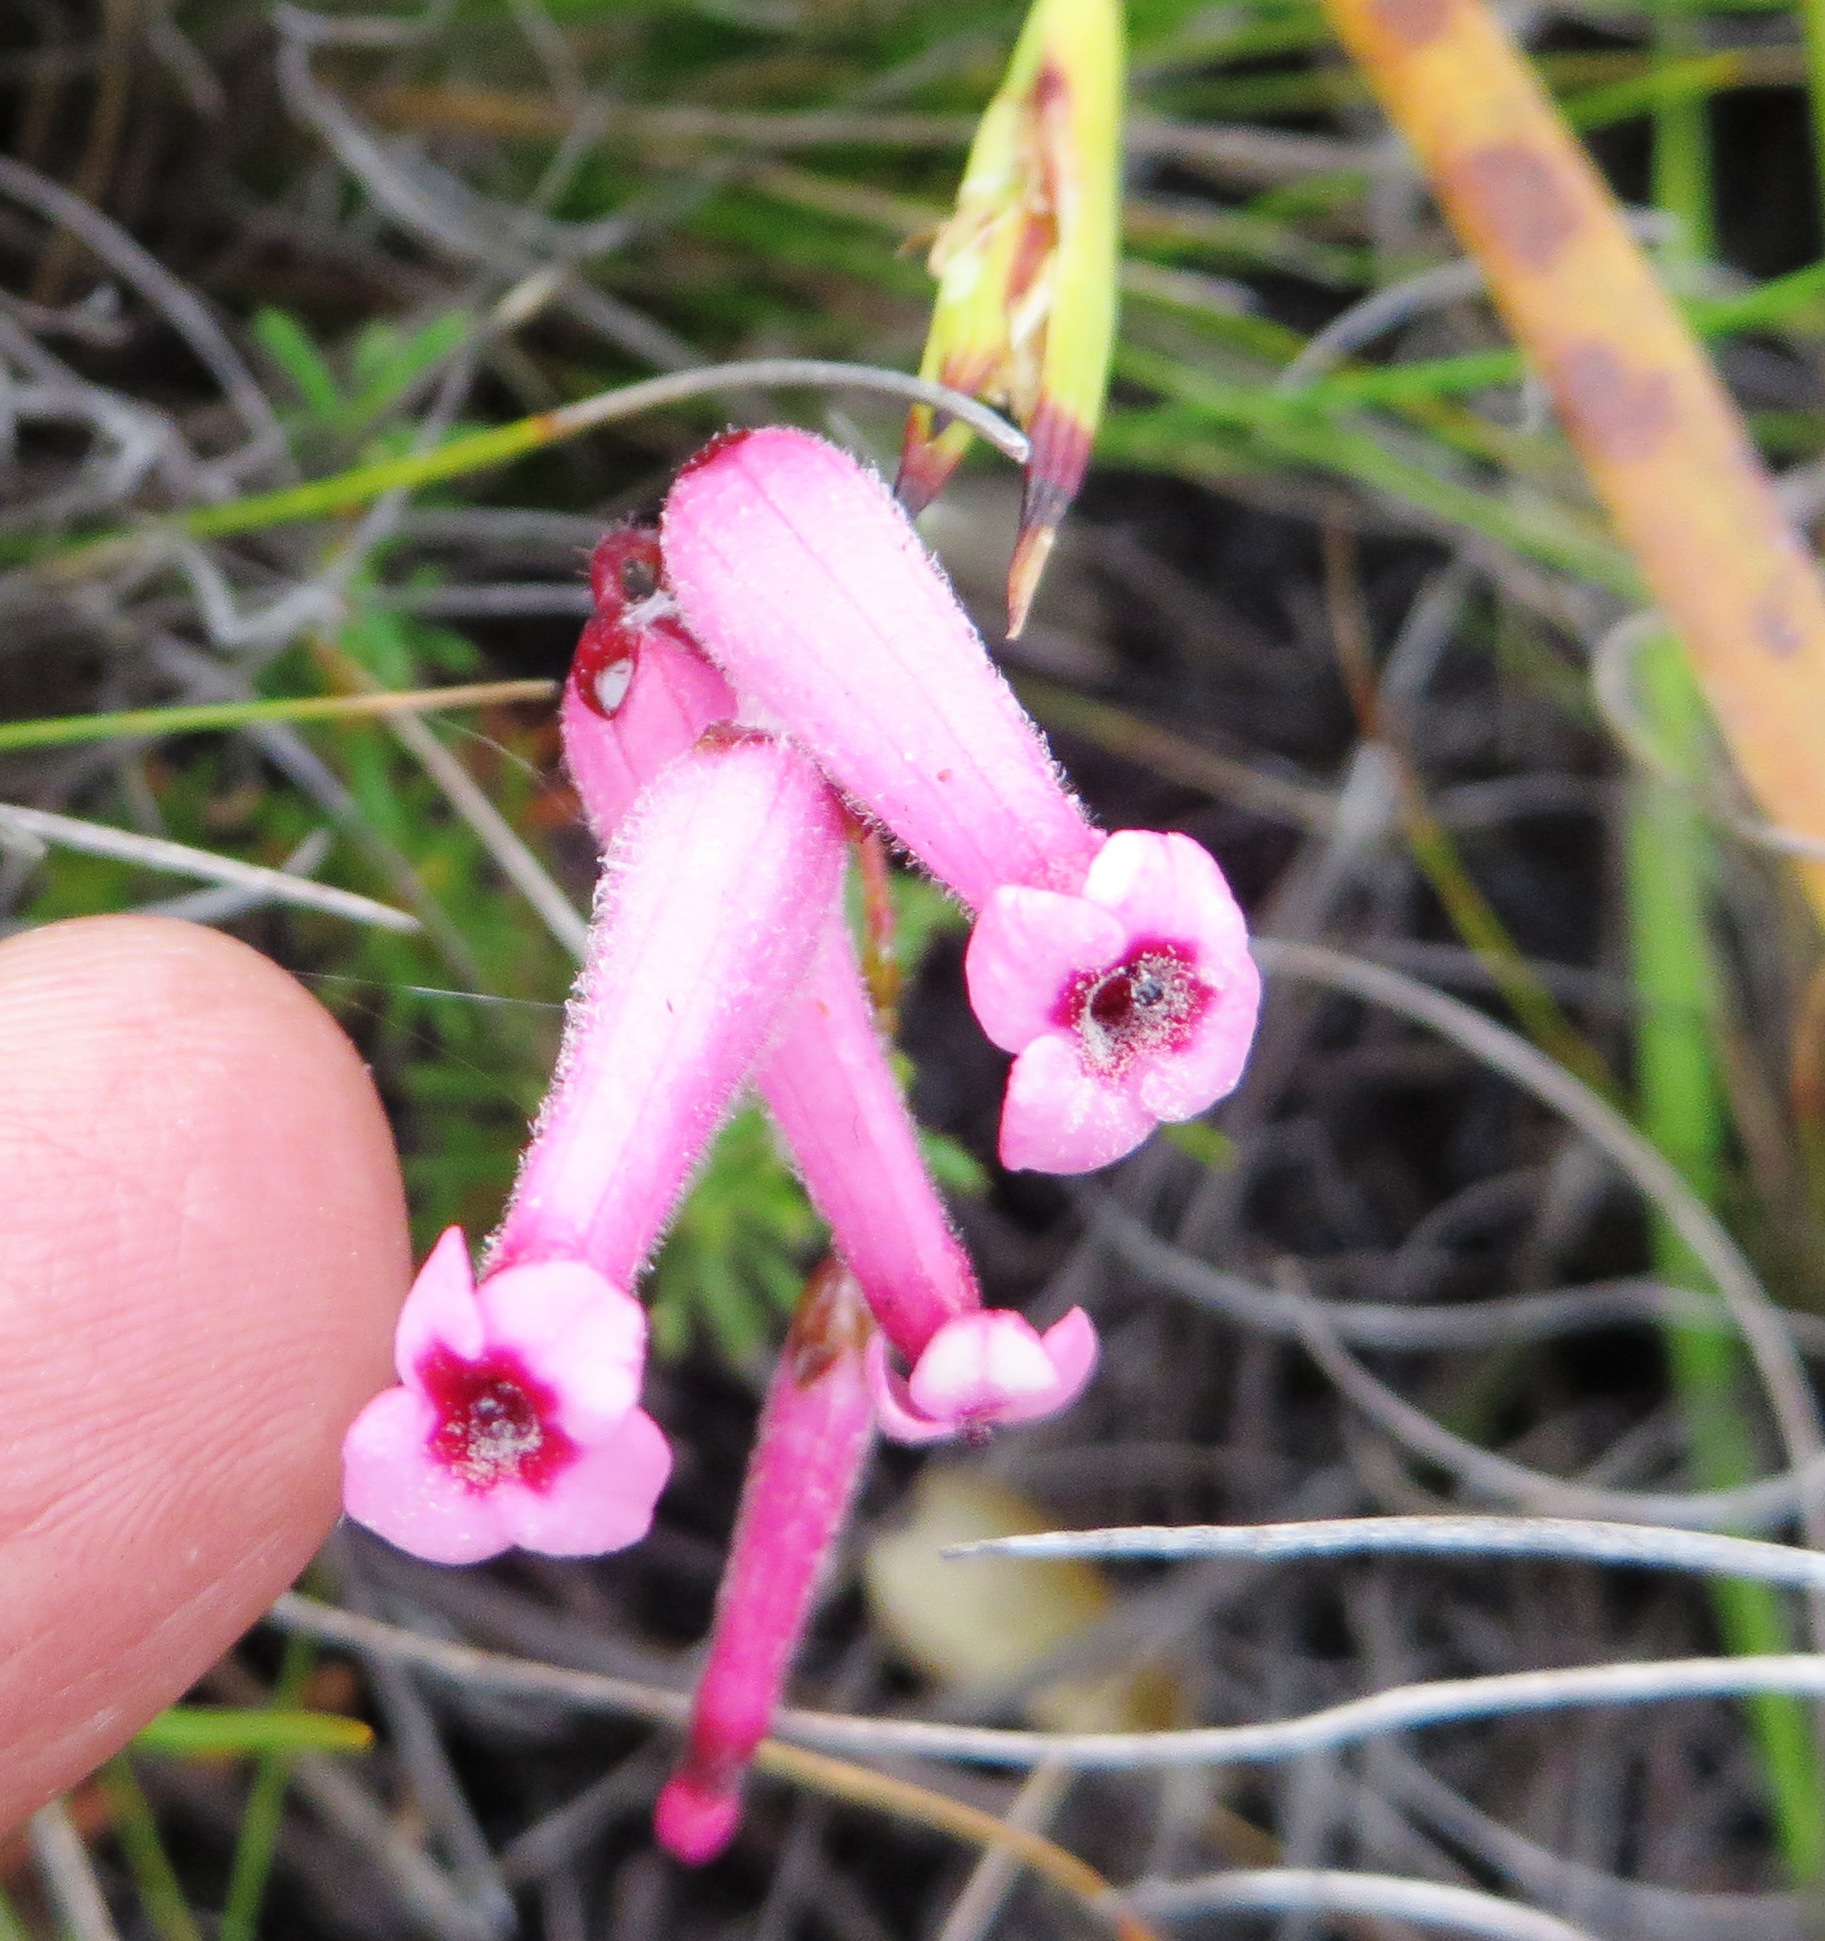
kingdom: Plantae
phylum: Tracheophyta
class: Magnoliopsida
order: Ericales
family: Ericaceae
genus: Erica
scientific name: Erica rufescens
